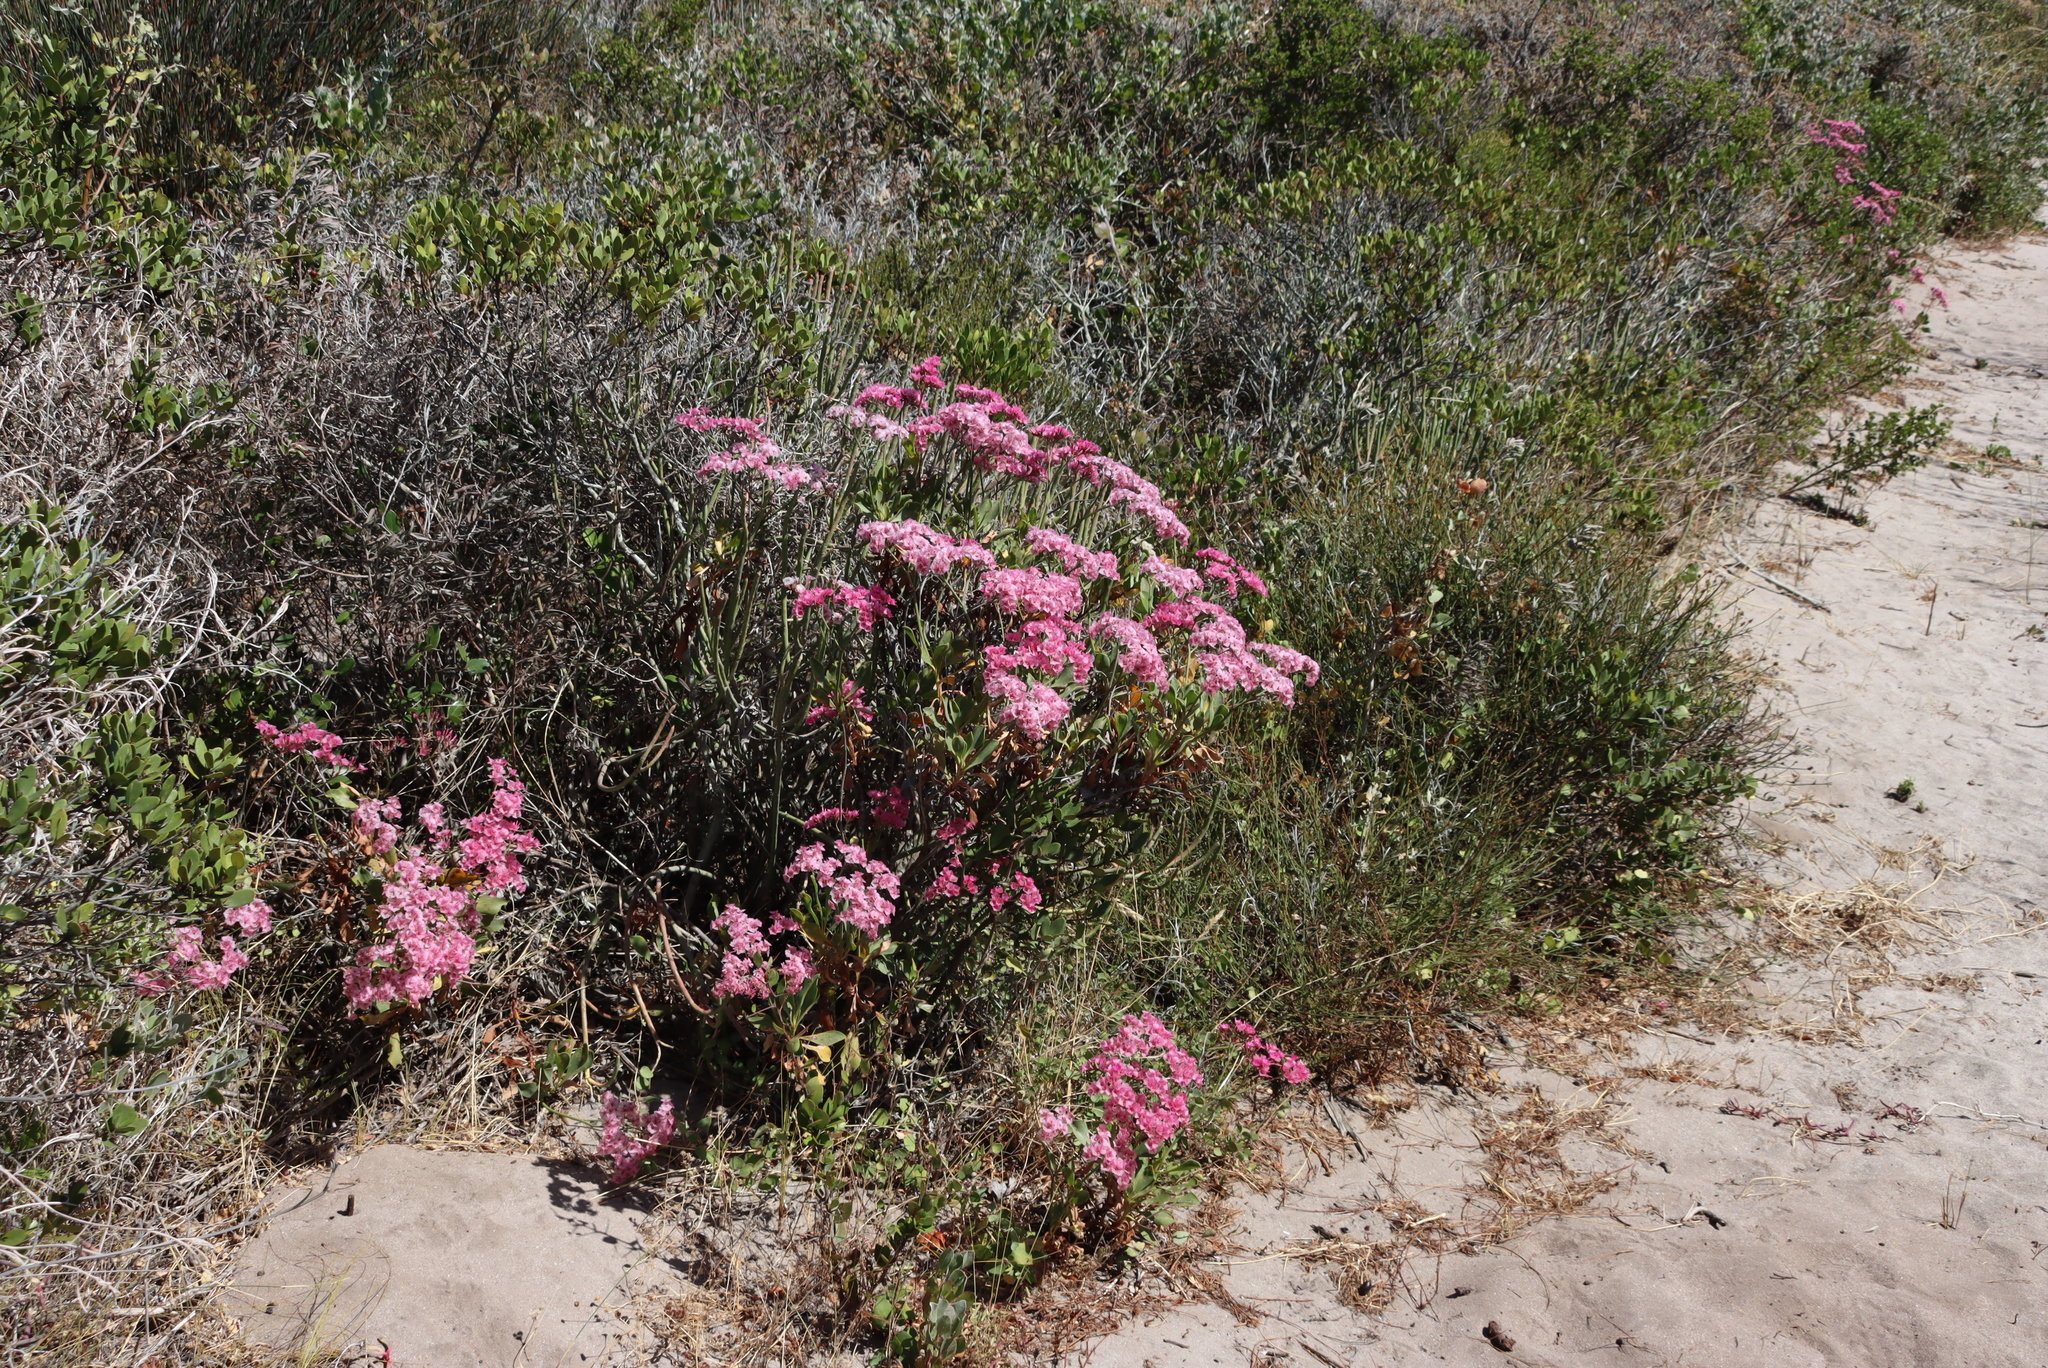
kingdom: Plantae
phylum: Tracheophyta
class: Magnoliopsida
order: Caryophyllales
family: Plumbaginaceae
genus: Limonium
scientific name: Limonium peregrinum
